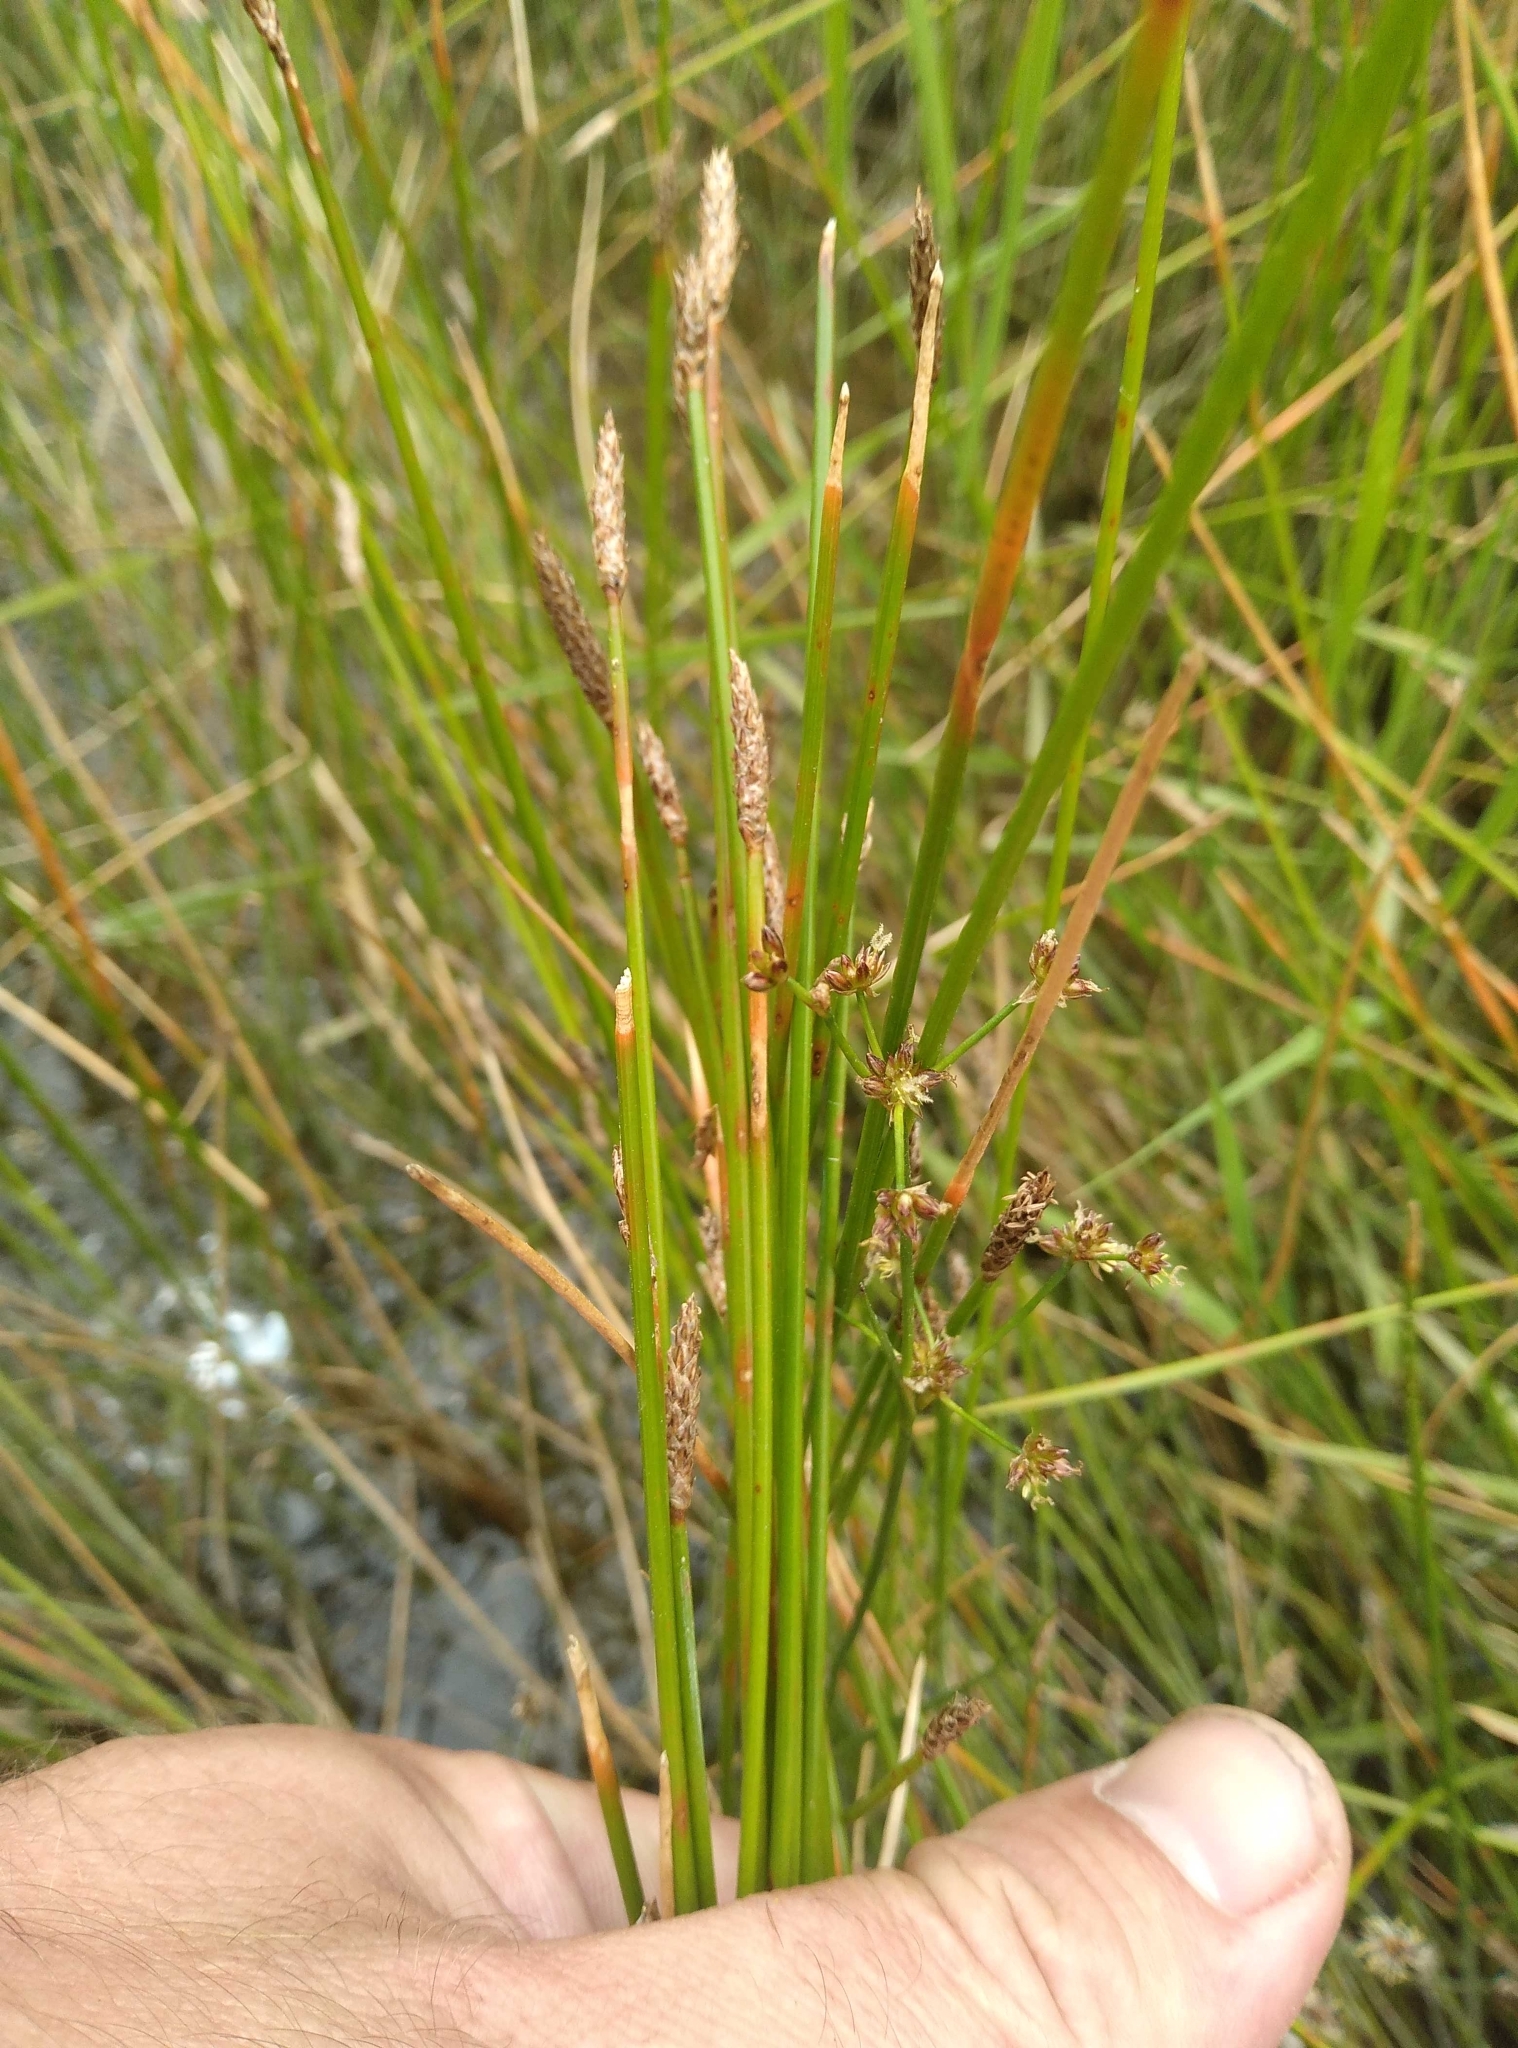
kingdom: Plantae
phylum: Tracheophyta
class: Liliopsida
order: Poales
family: Cyperaceae
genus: Eleocharis
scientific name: Eleocharis acuta
